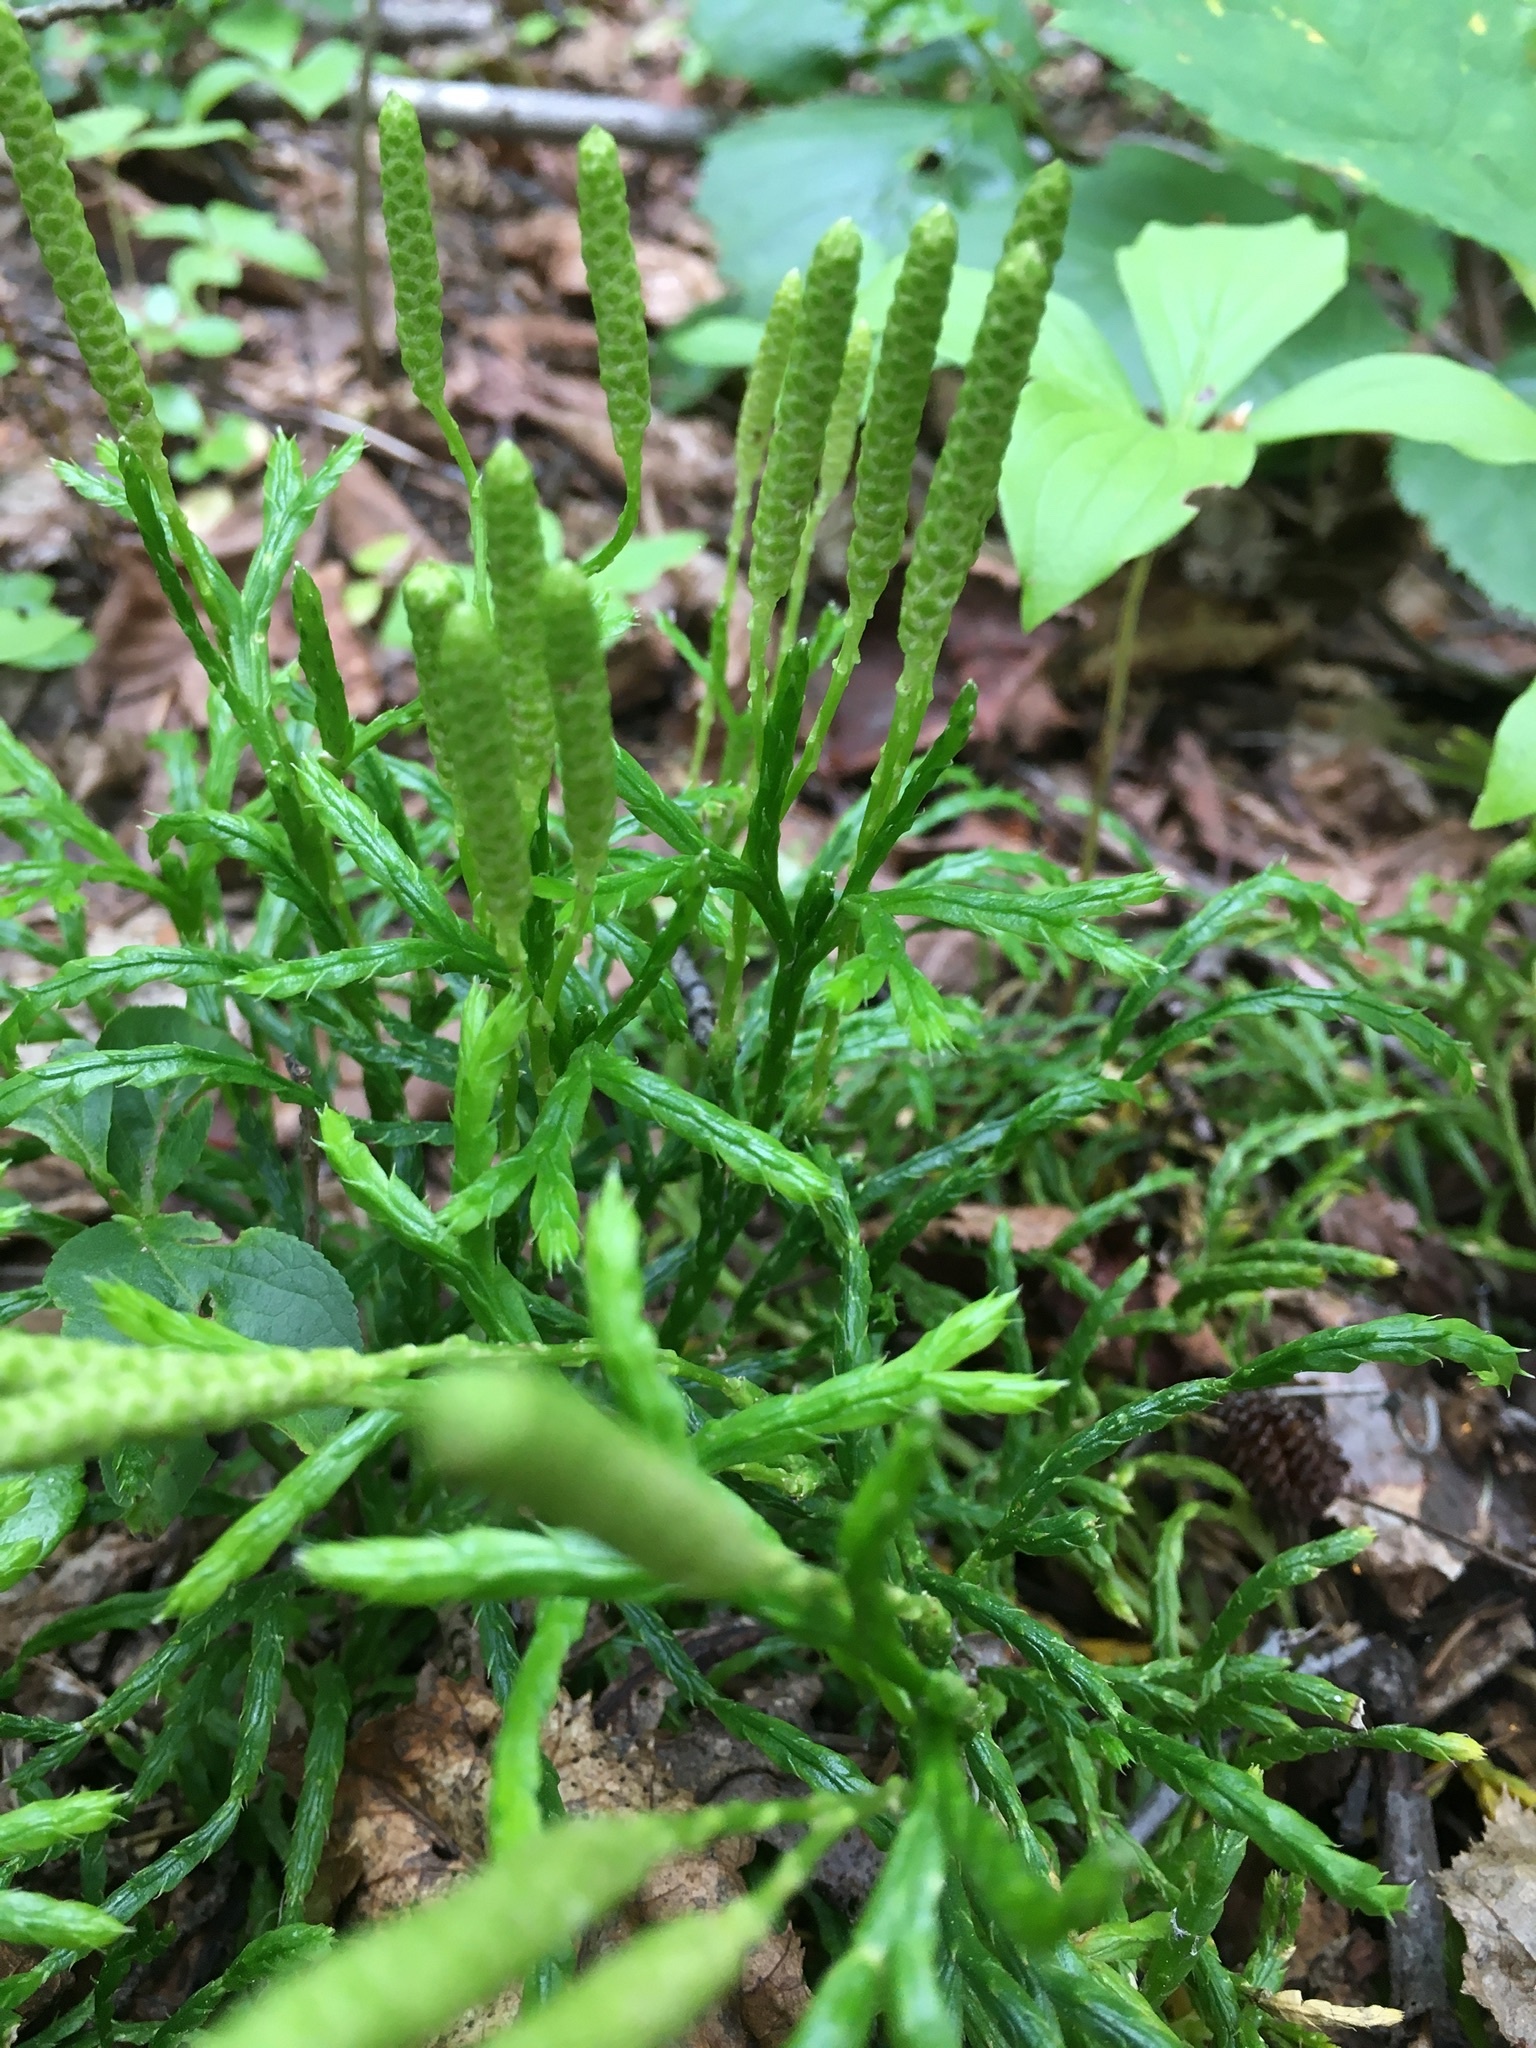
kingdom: Plantae
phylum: Tracheophyta
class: Lycopodiopsida
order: Lycopodiales
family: Lycopodiaceae
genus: Diphasiastrum
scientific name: Diphasiastrum complanatum
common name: Northern running-pine
